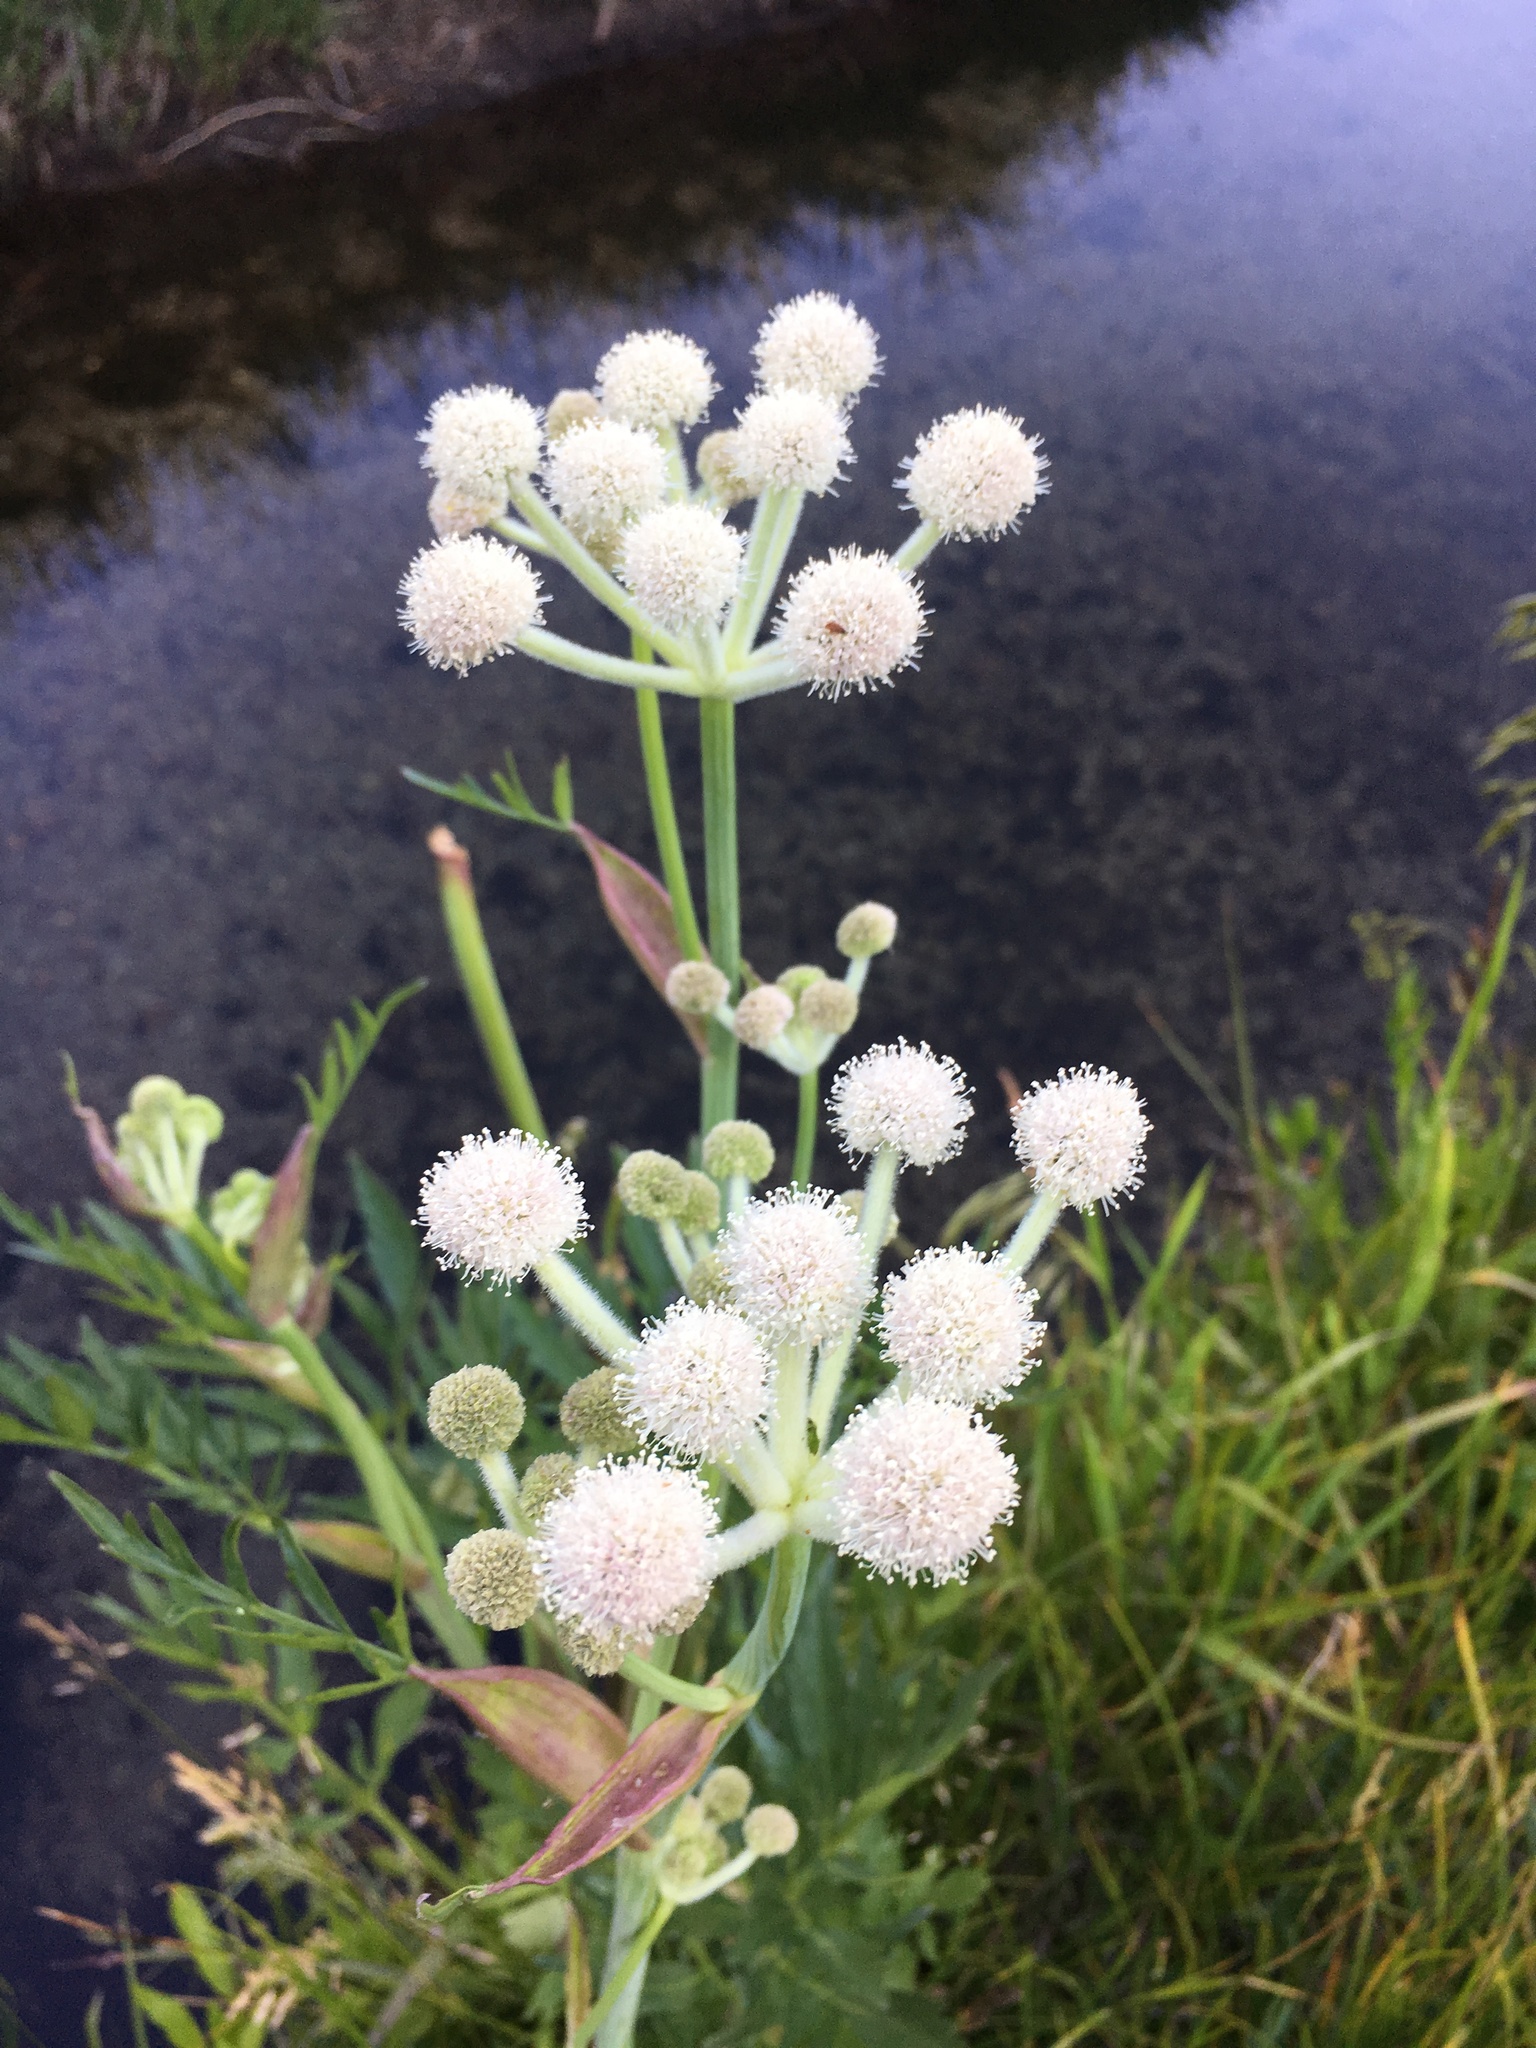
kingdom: Plantae
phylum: Tracheophyta
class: Magnoliopsida
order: Apiales
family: Apiaceae
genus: Angelica
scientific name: Angelica capitellata
